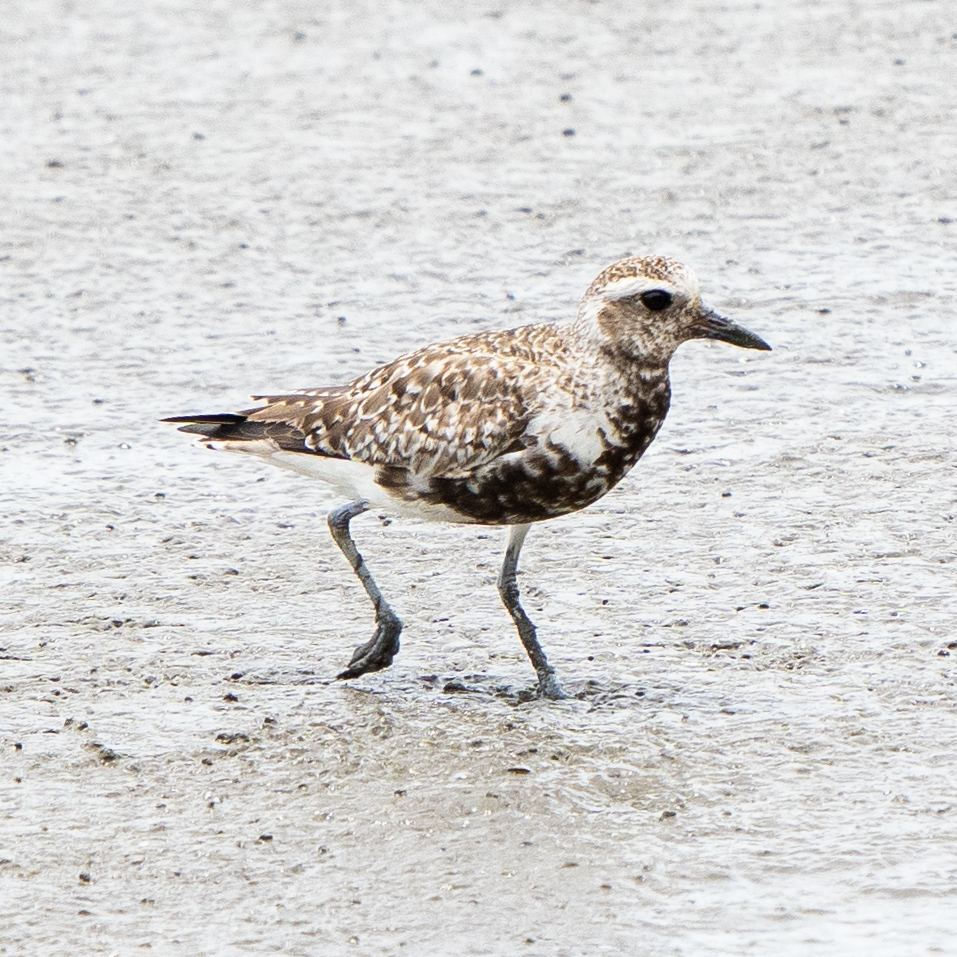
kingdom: Animalia
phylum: Chordata
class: Aves
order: Charadriiformes
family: Charadriidae
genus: Pluvialis
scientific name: Pluvialis squatarola
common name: Grey plover
